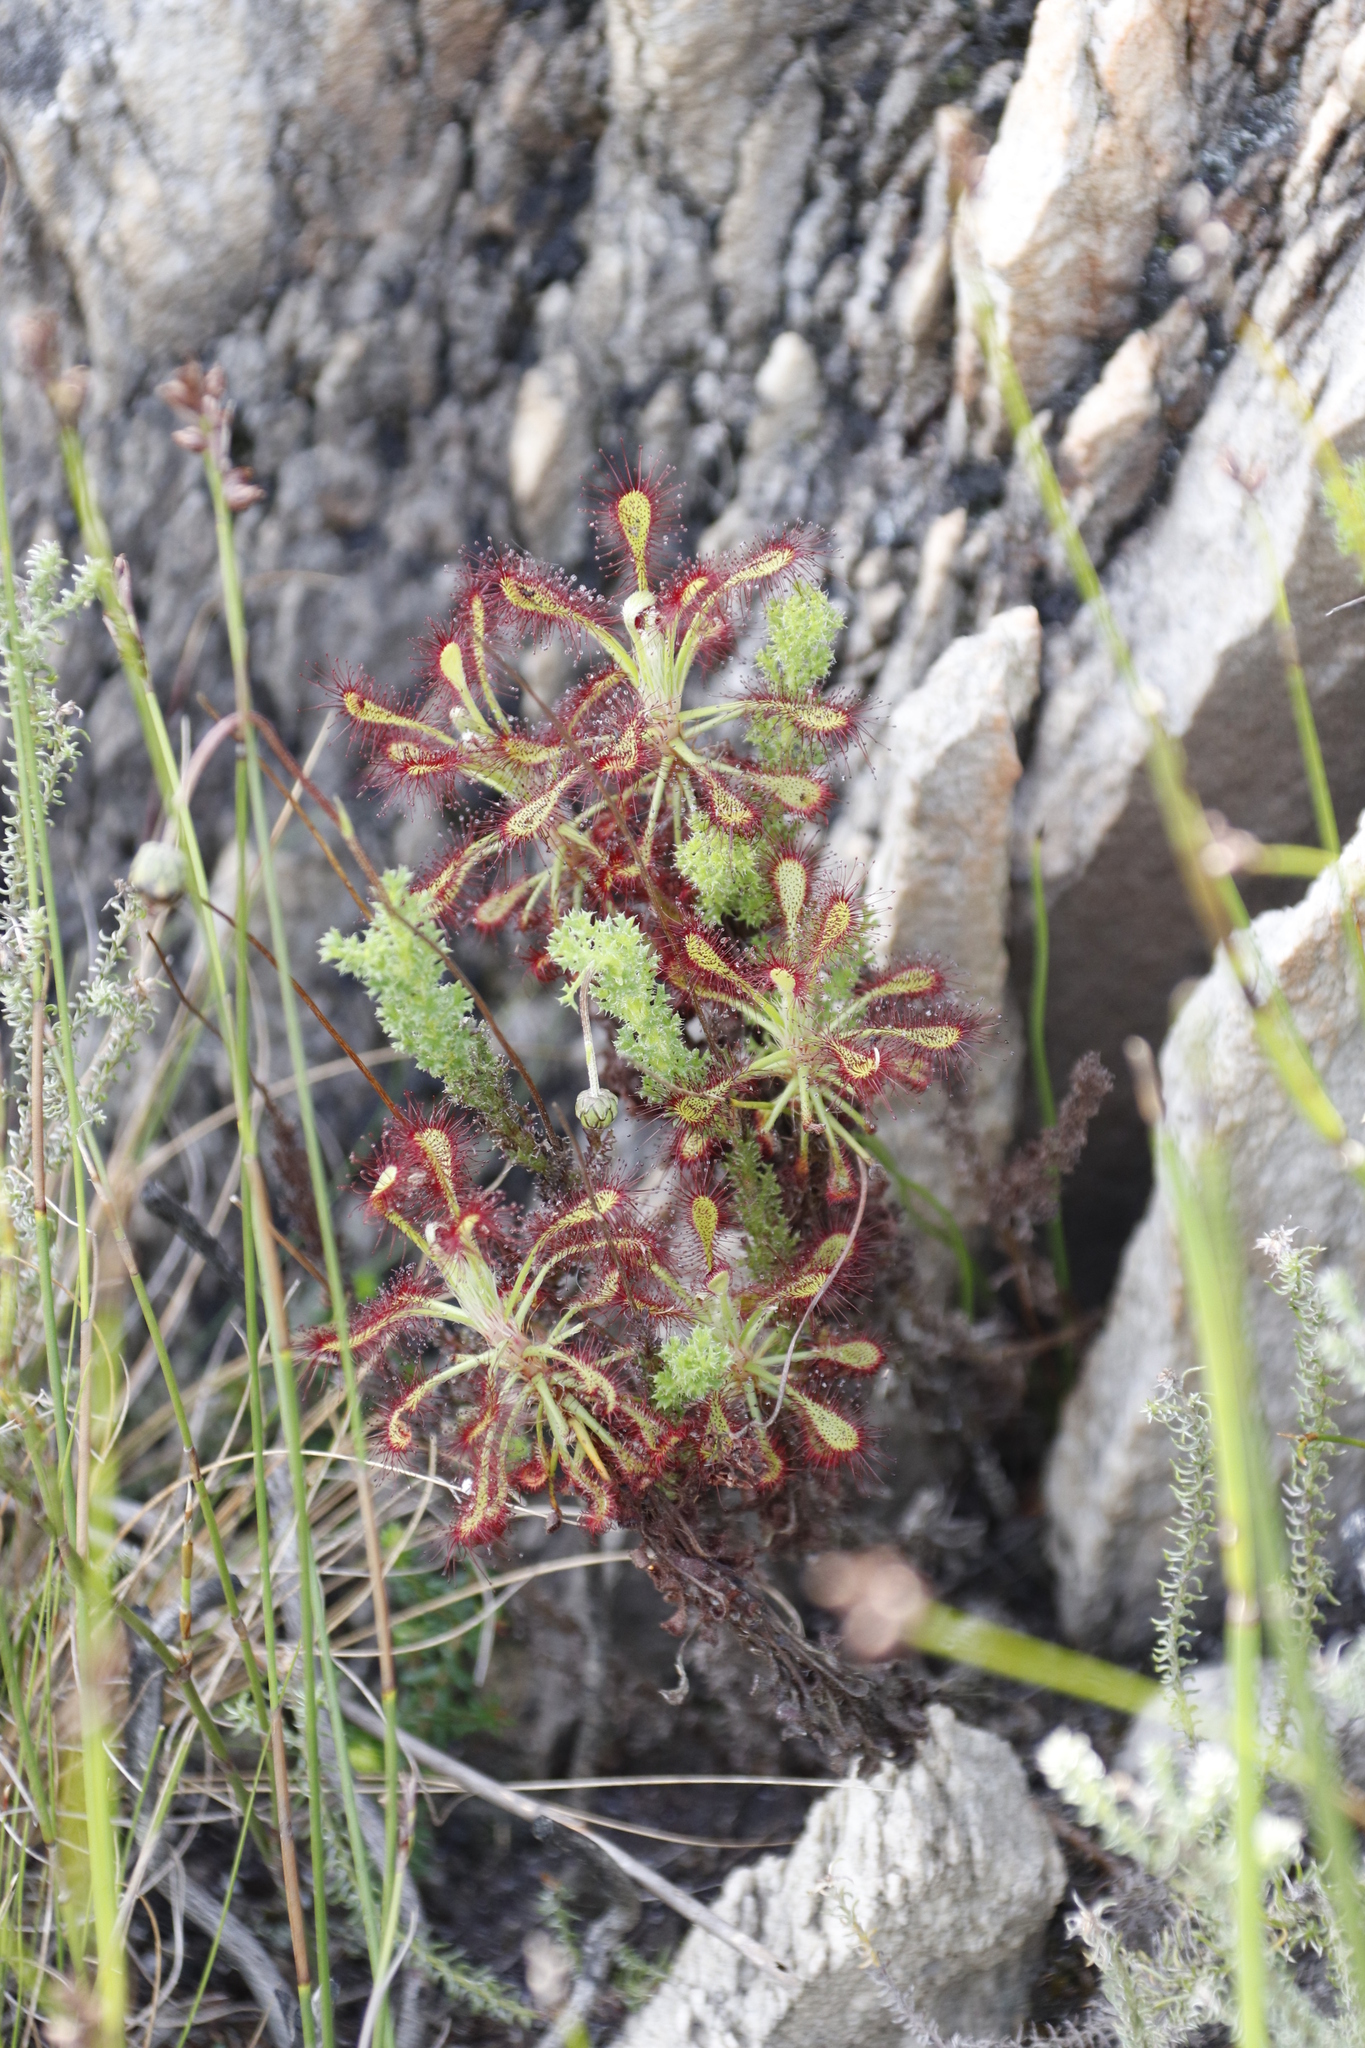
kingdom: Plantae
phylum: Tracheophyta
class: Magnoliopsida
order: Caryophyllales
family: Droseraceae
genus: Drosera
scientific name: Drosera glabripes
